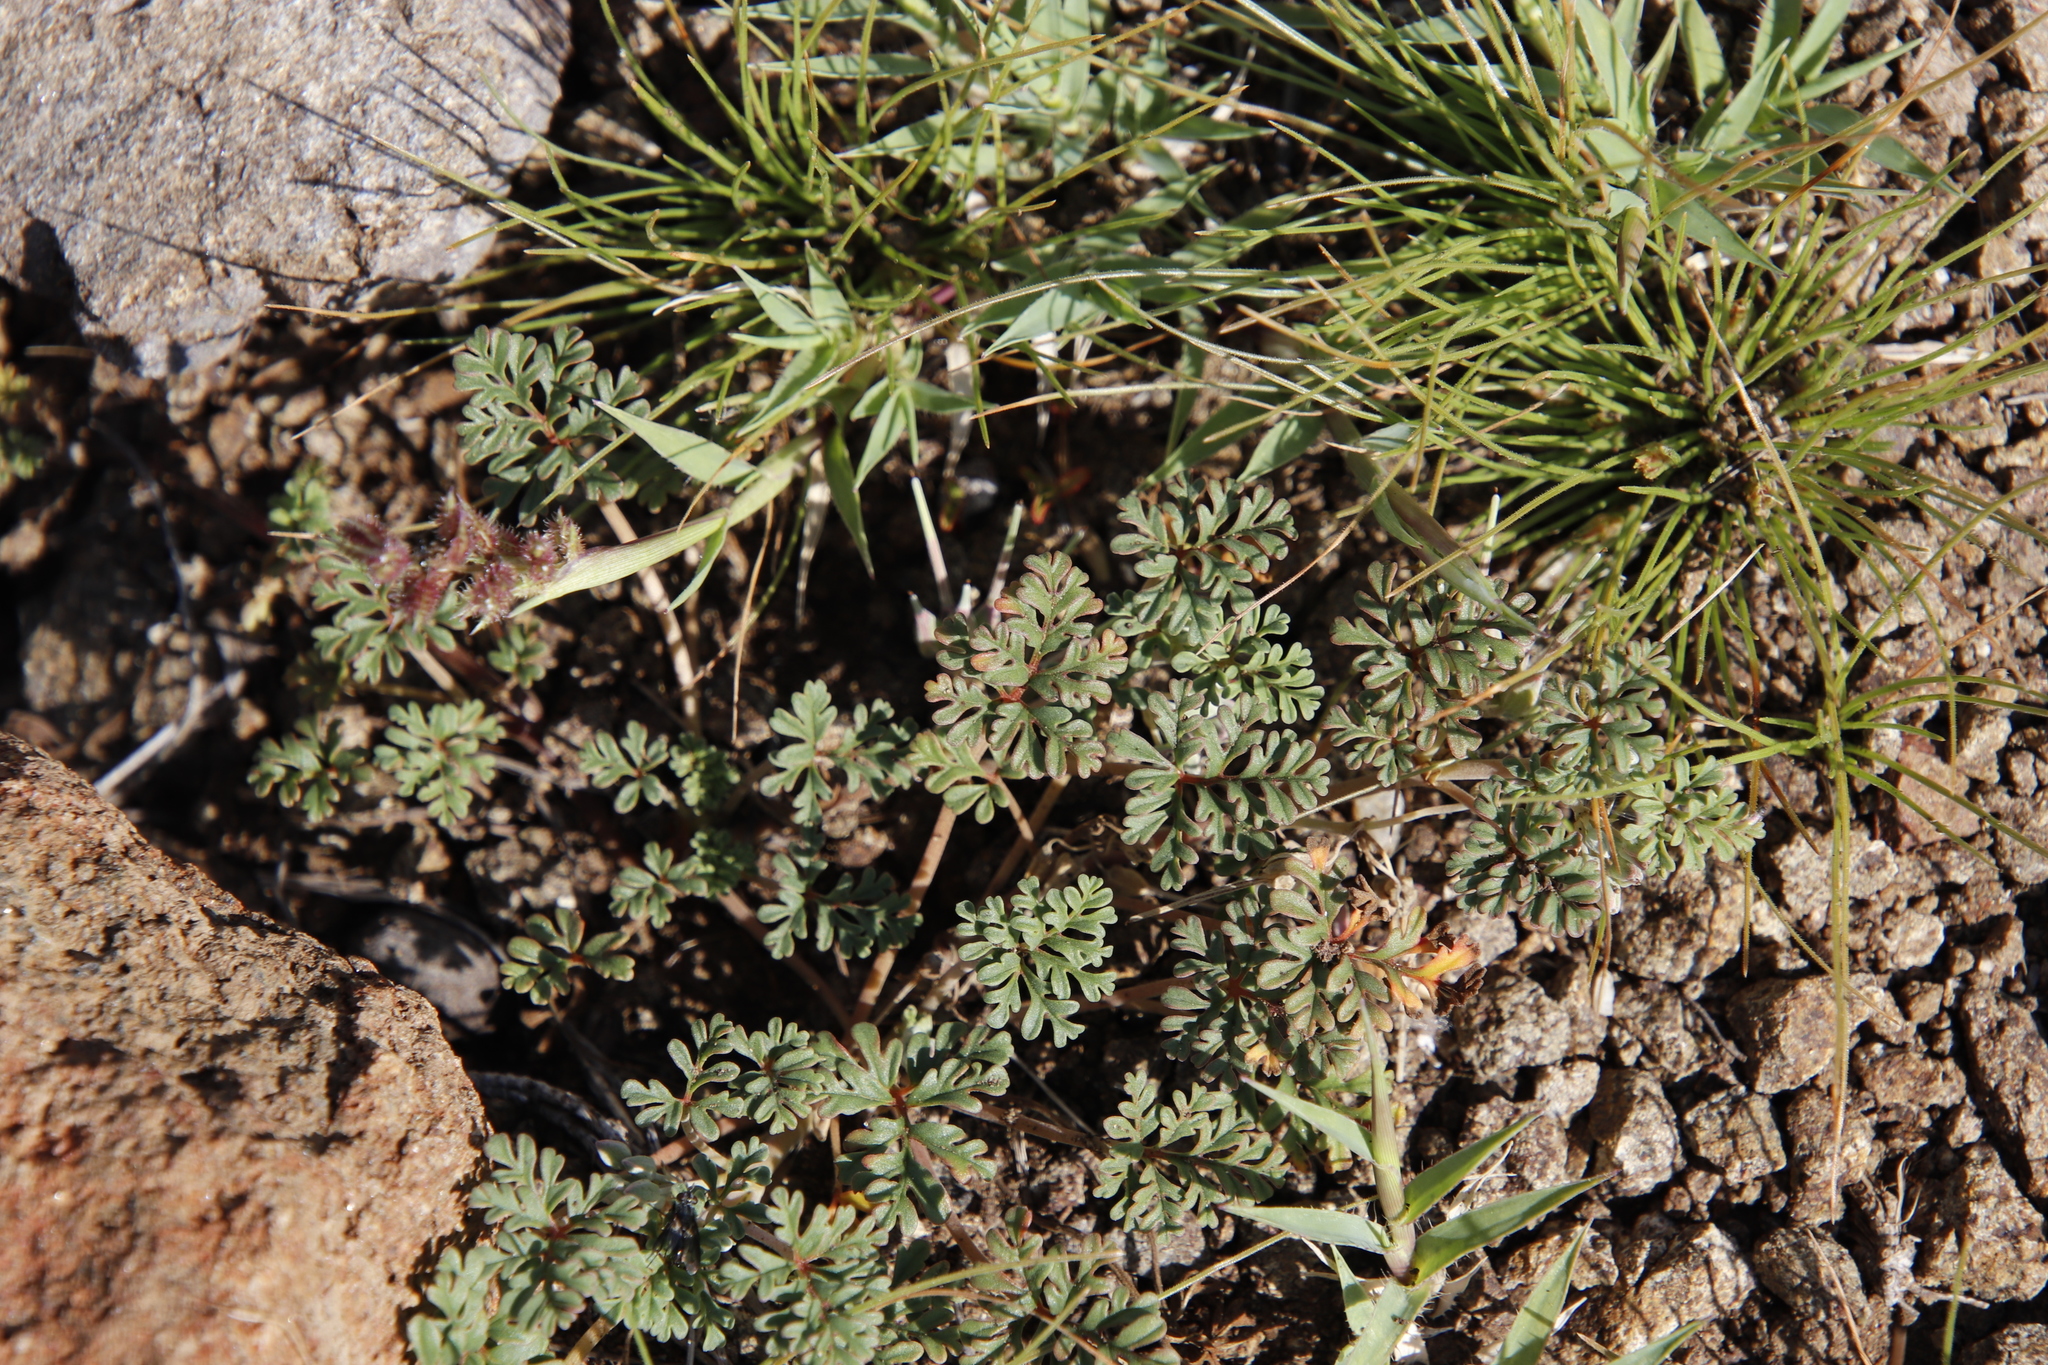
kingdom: Plantae
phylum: Tracheophyta
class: Magnoliopsida
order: Geraniales
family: Geraniaceae
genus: Pelargonium
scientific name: Pelargonium minimum
